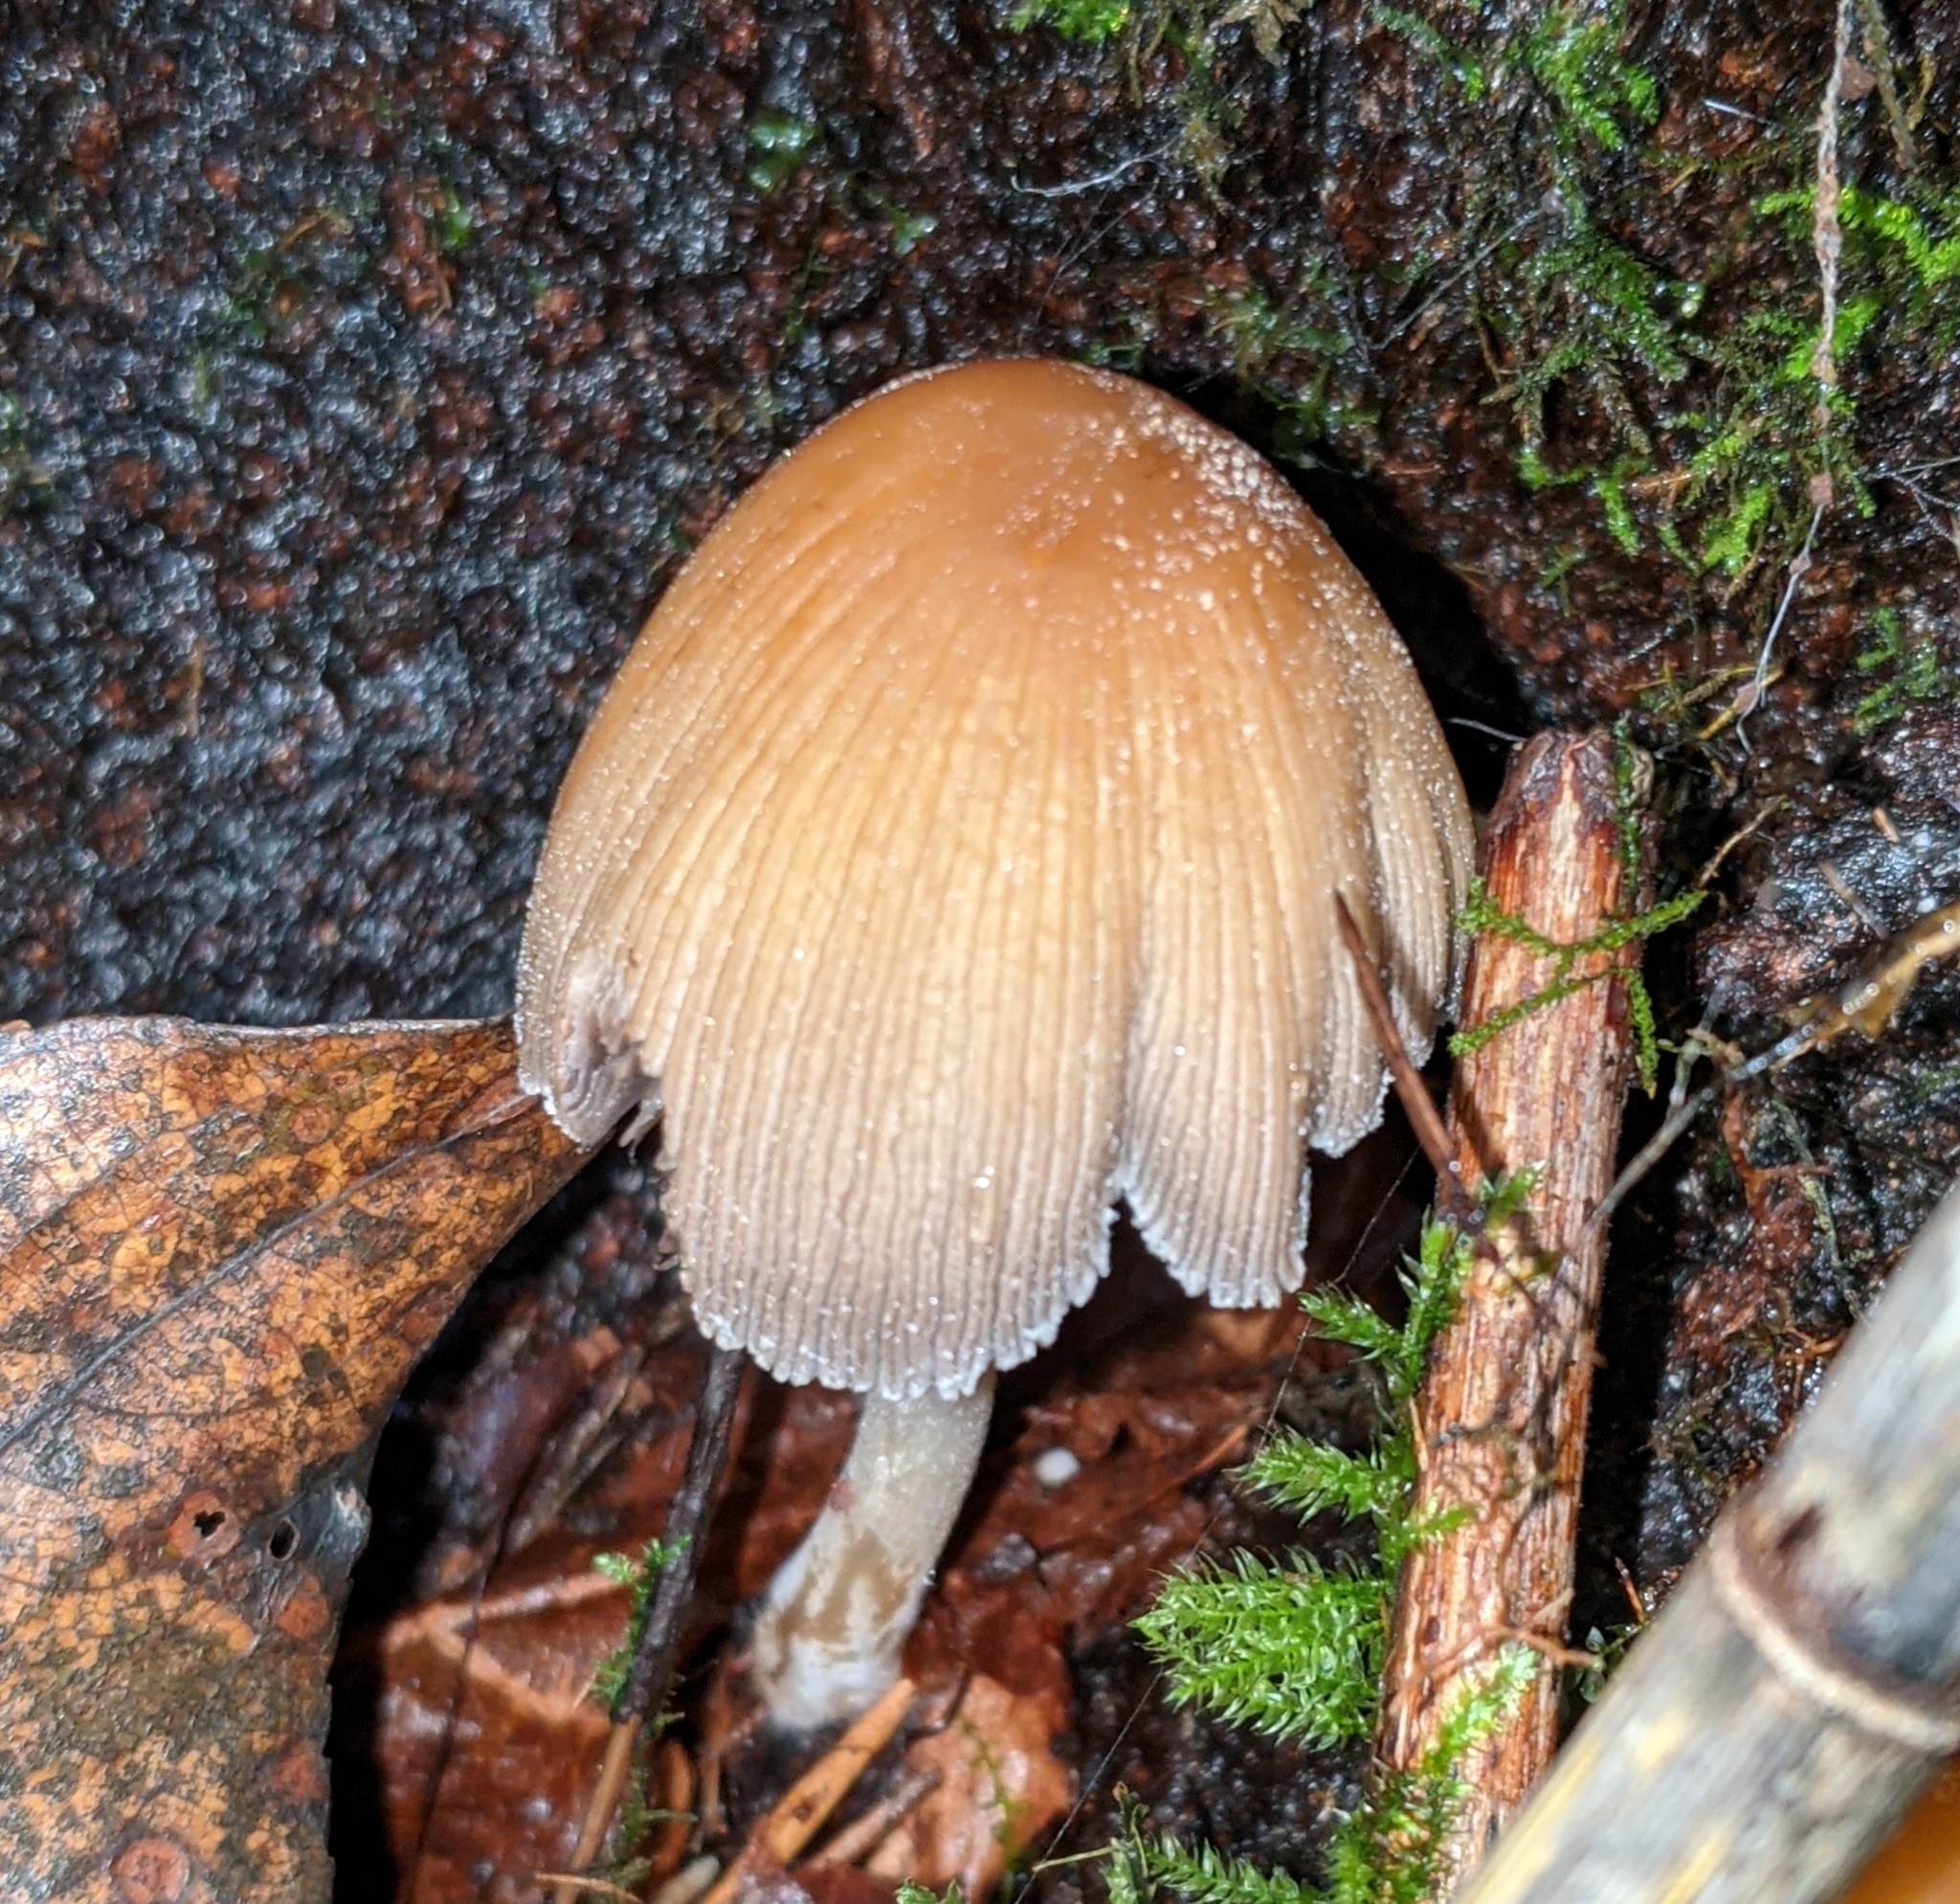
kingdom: Fungi
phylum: Basidiomycota
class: Agaricomycetes
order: Agaricales
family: Psathyrellaceae
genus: Coprinellus
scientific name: Coprinellus micaceus
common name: Glistening ink-cap
